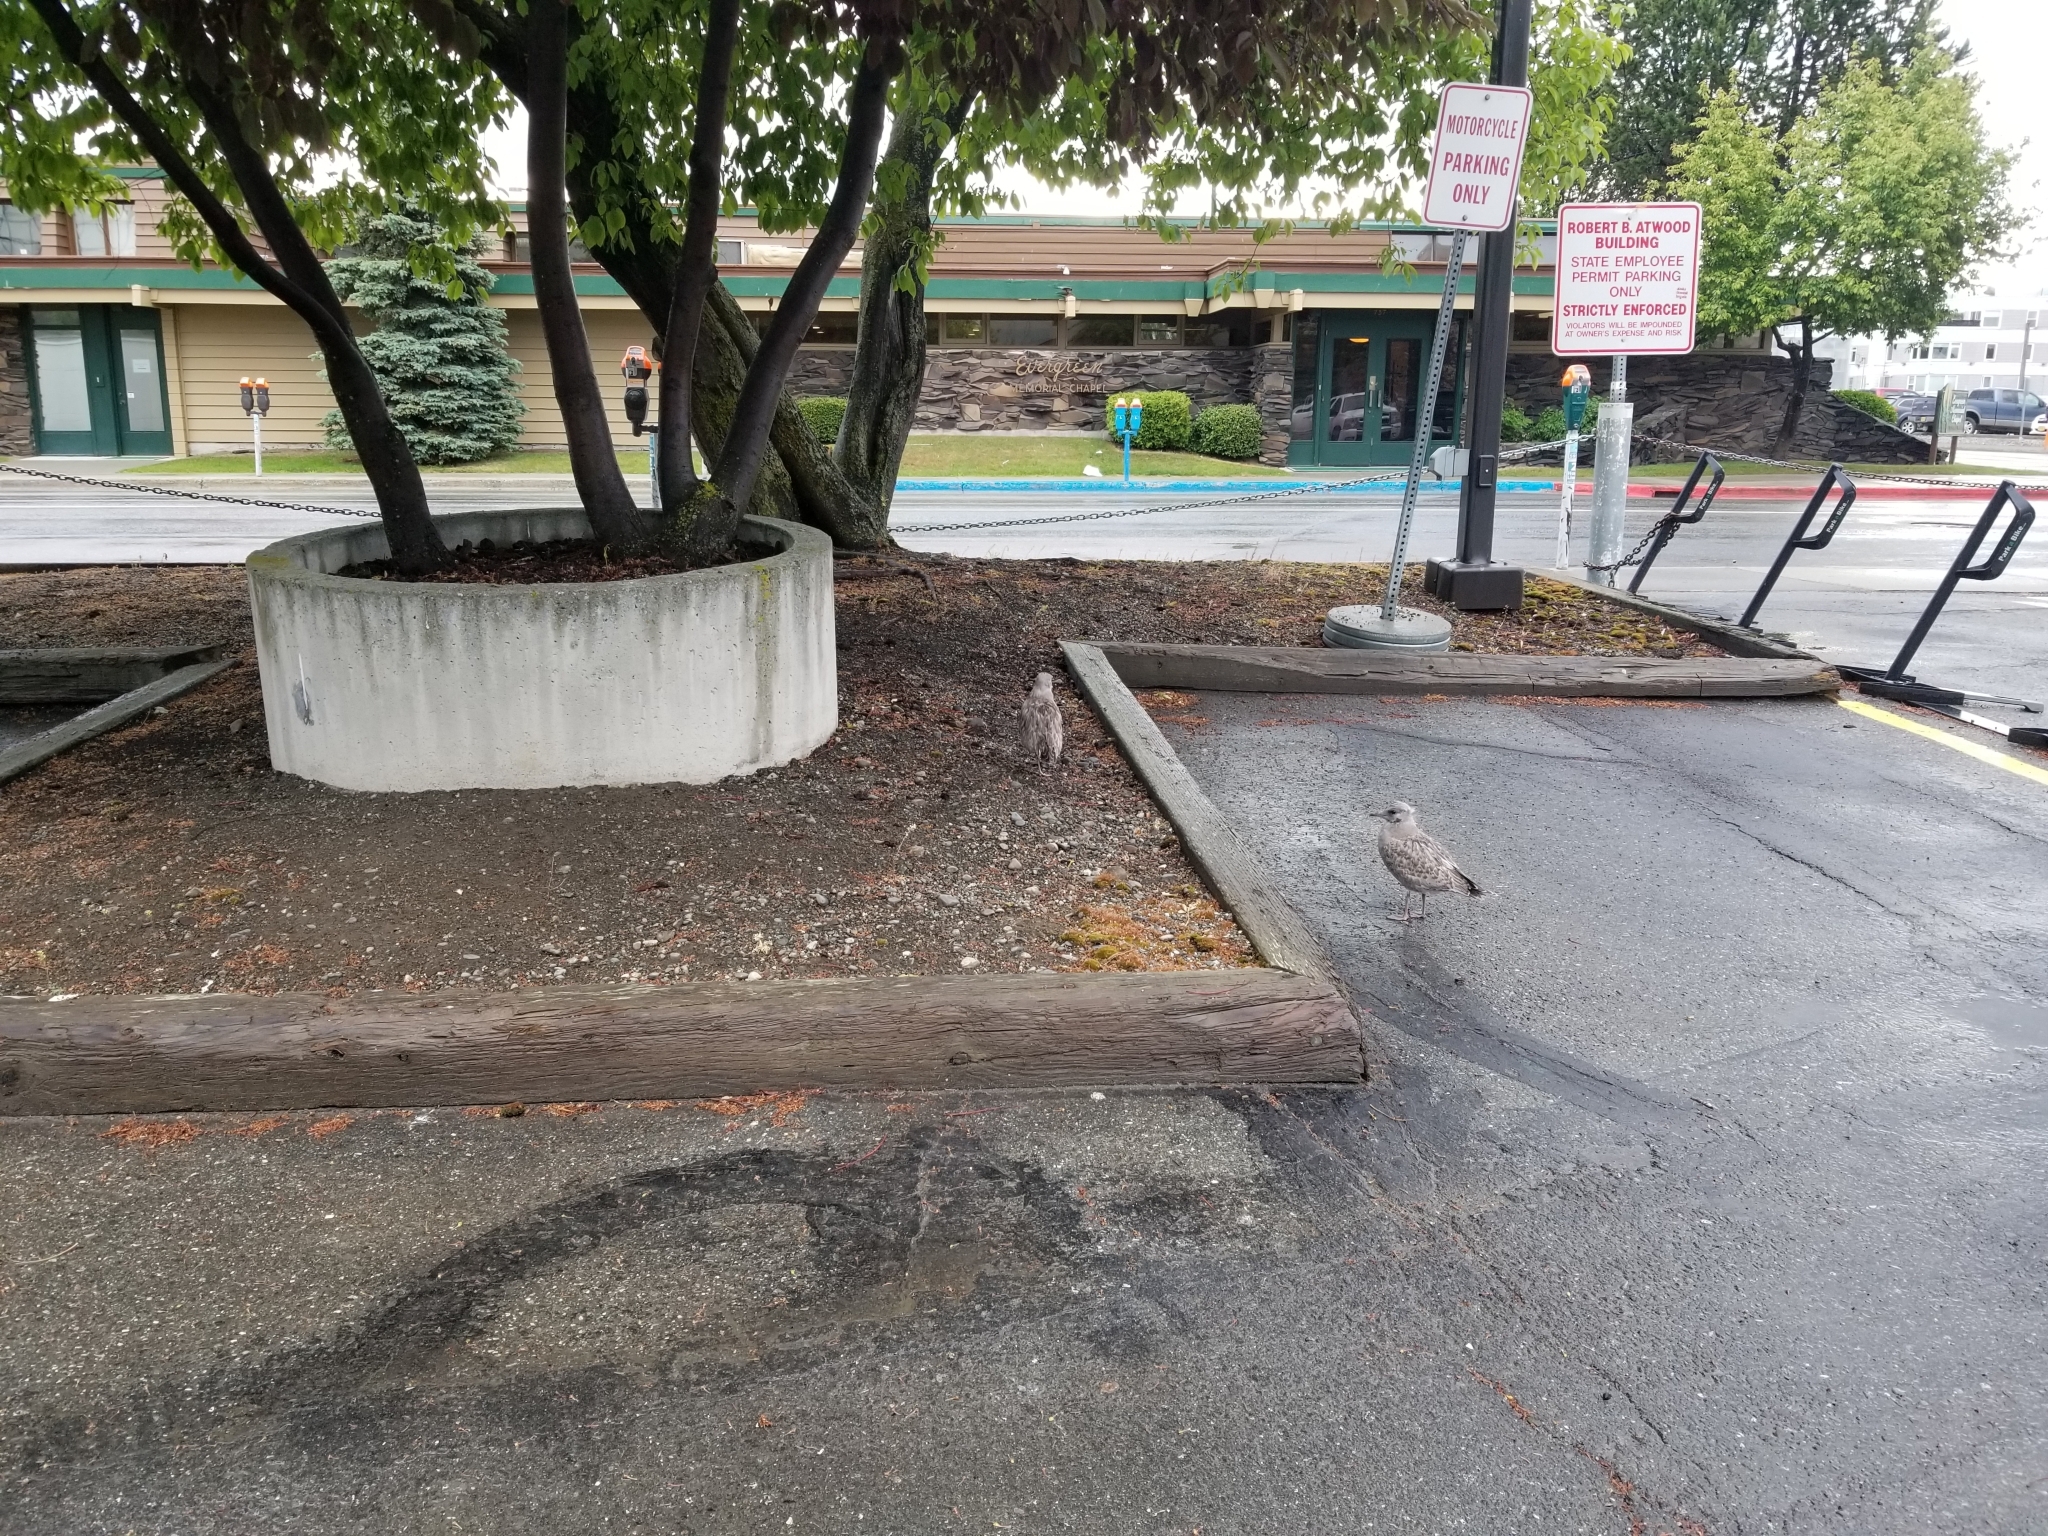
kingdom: Animalia
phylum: Chordata
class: Aves
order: Charadriiformes
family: Laridae
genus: Larus
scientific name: Larus brachyrhynchus
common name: Short-billed gull
